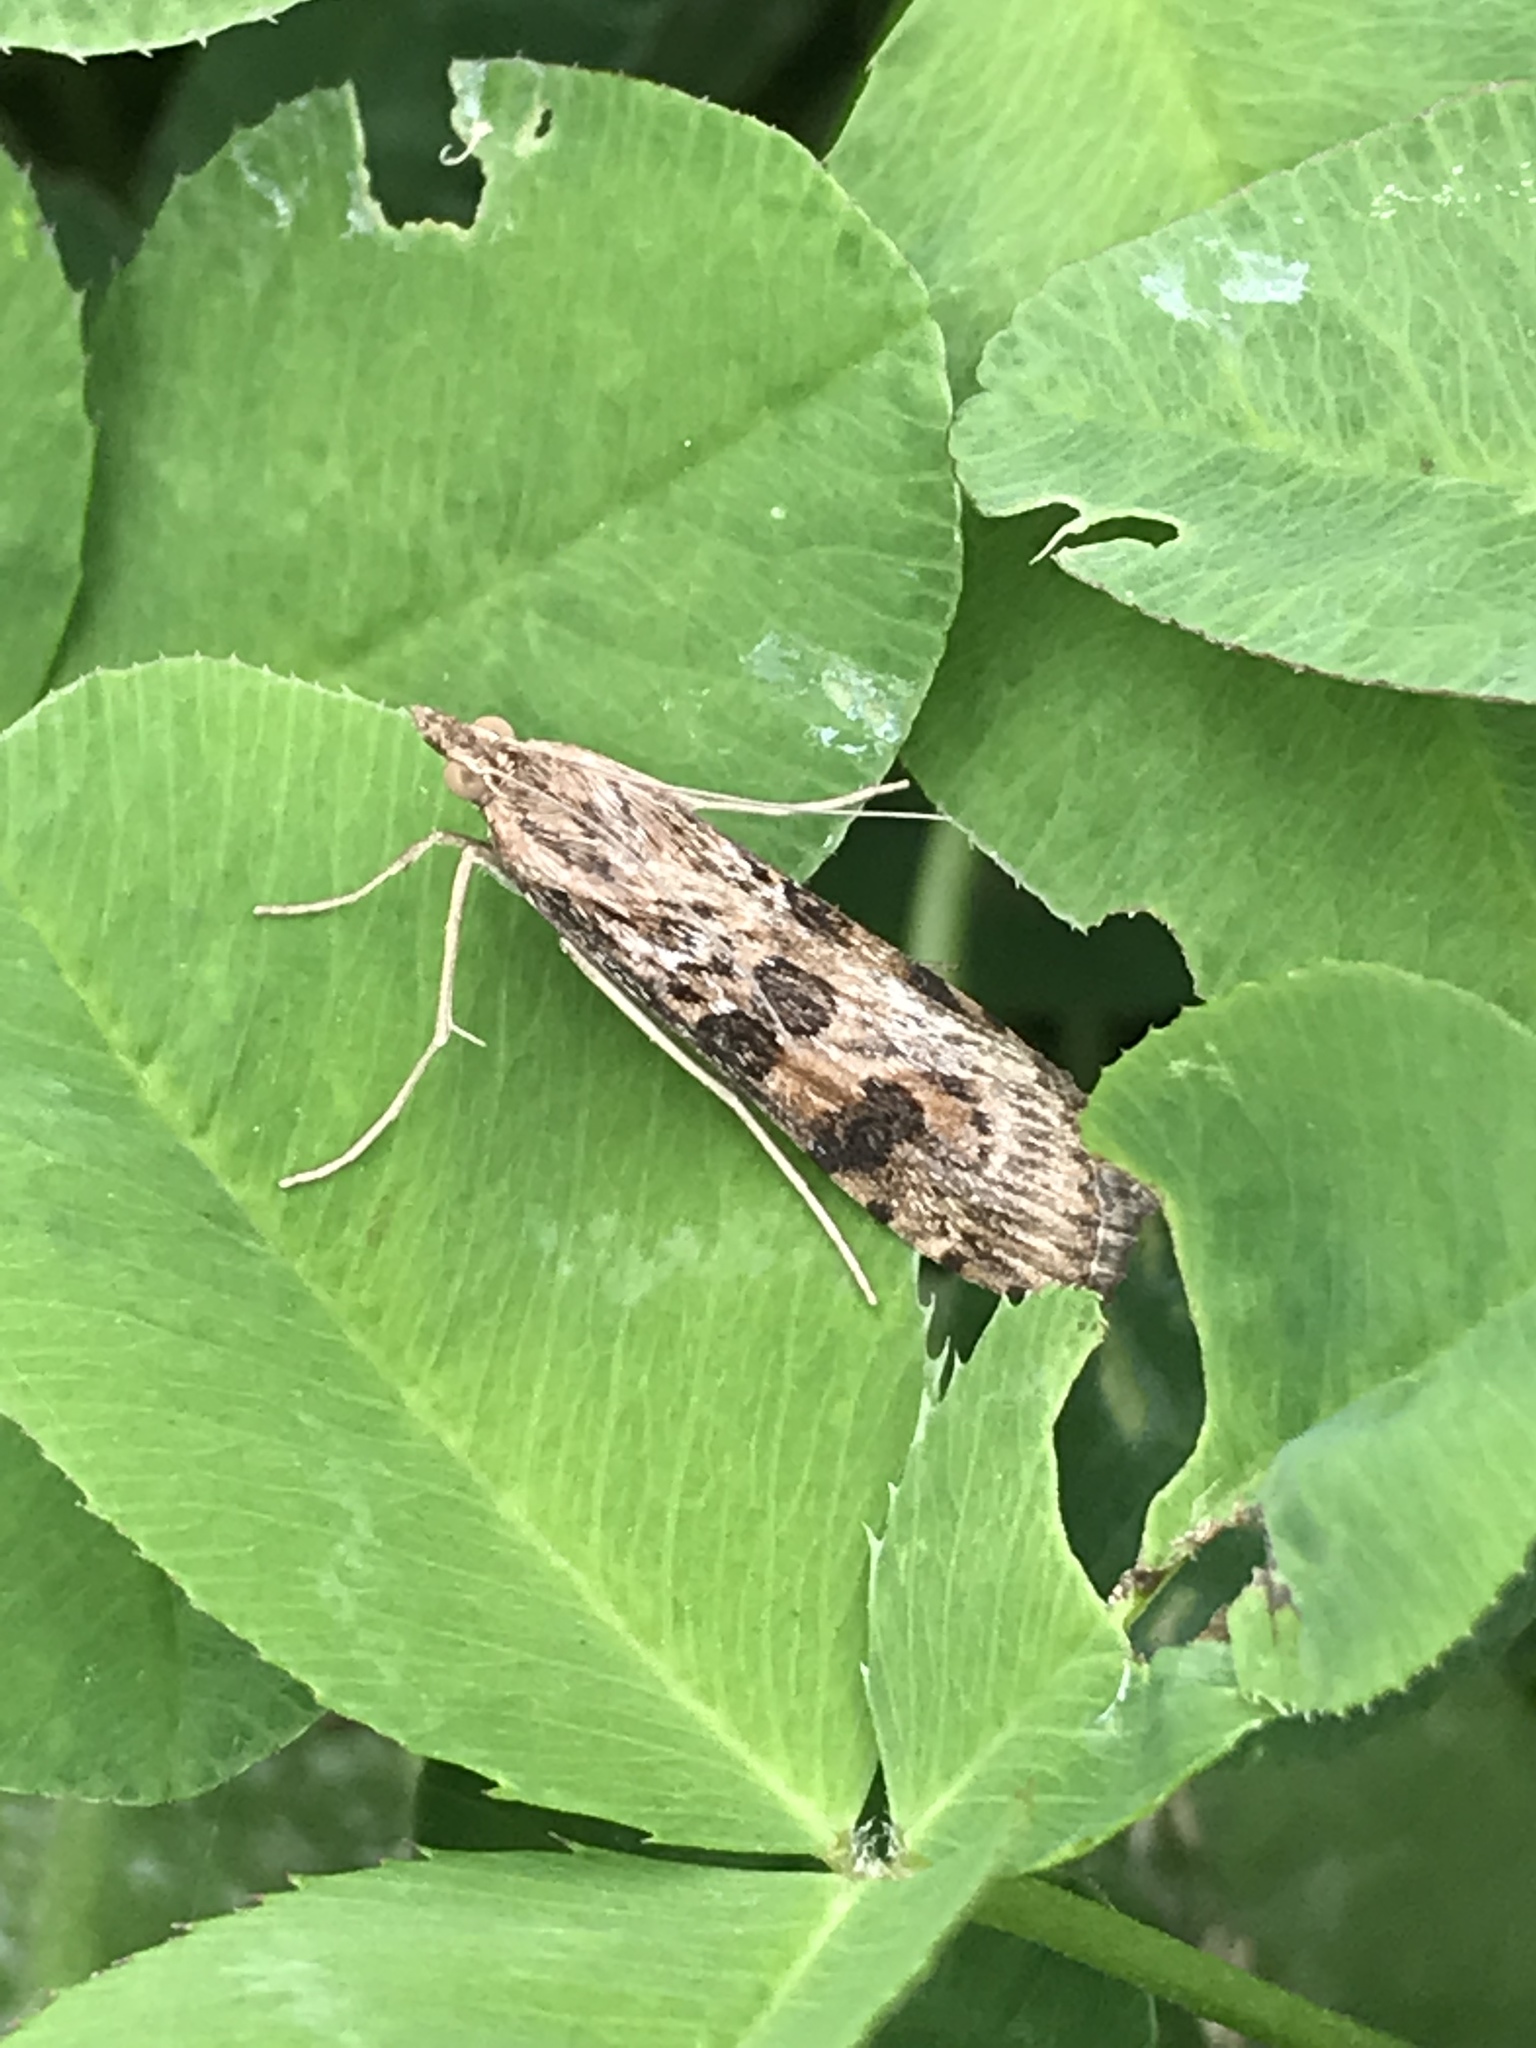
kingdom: Animalia
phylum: Arthropoda
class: Insecta
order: Lepidoptera
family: Crambidae
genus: Nomophila
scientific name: Nomophila nearctica
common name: American rush veneer
